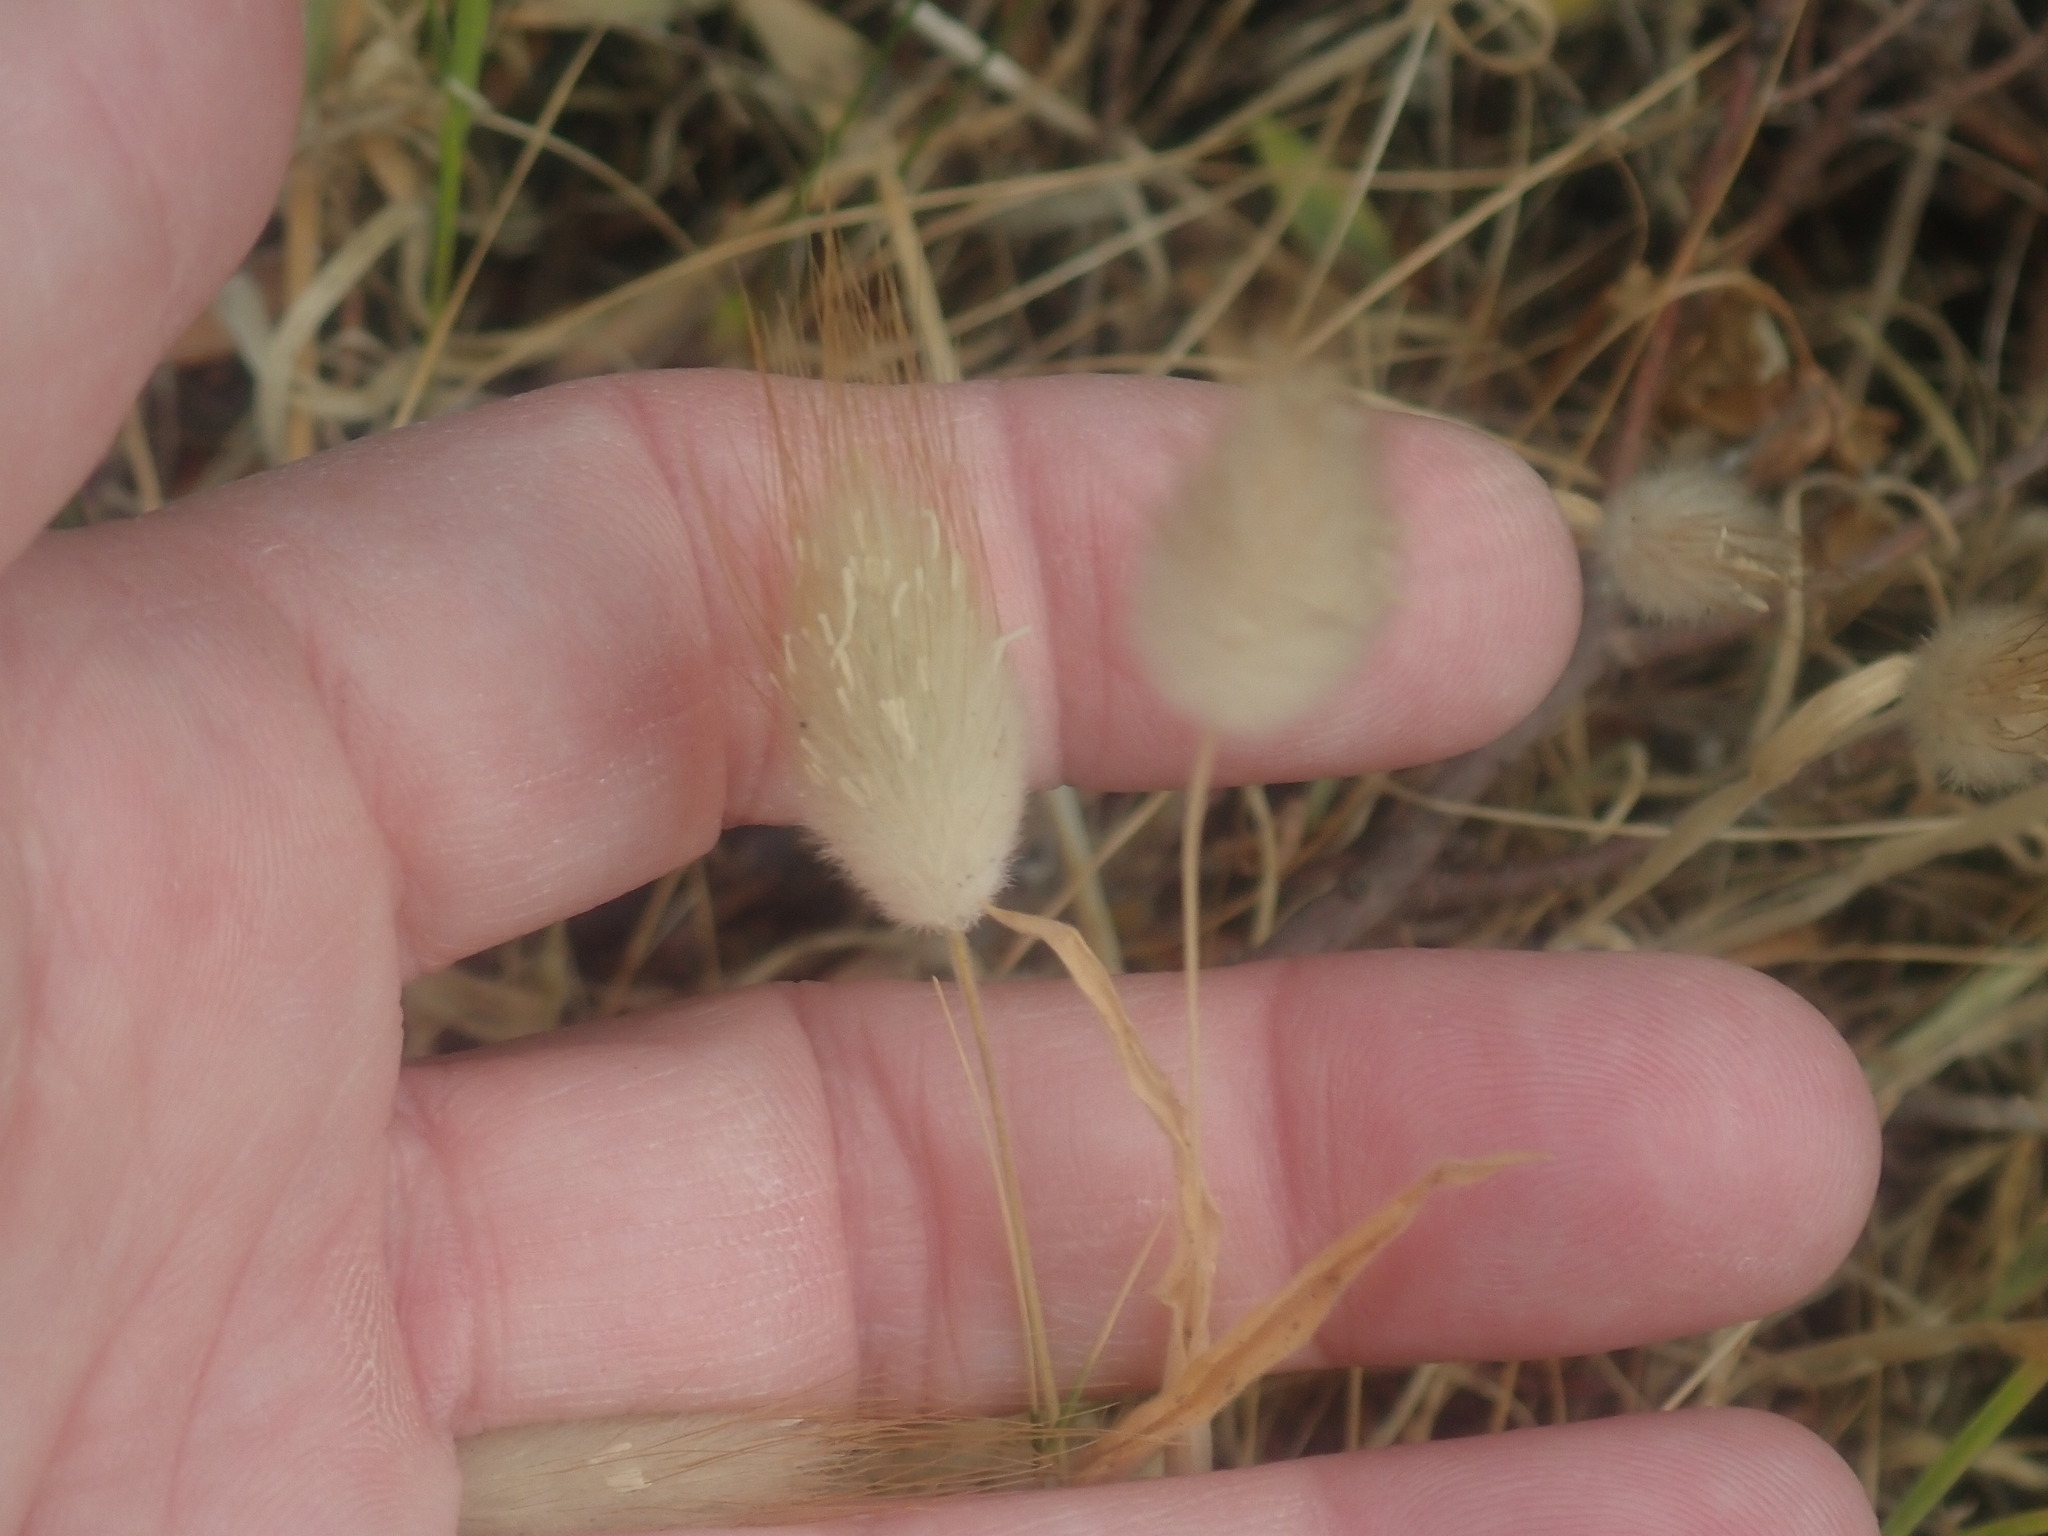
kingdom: Plantae
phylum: Tracheophyta
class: Liliopsida
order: Poales
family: Poaceae
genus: Lagurus
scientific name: Lagurus ovatus
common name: Hare's-tail
